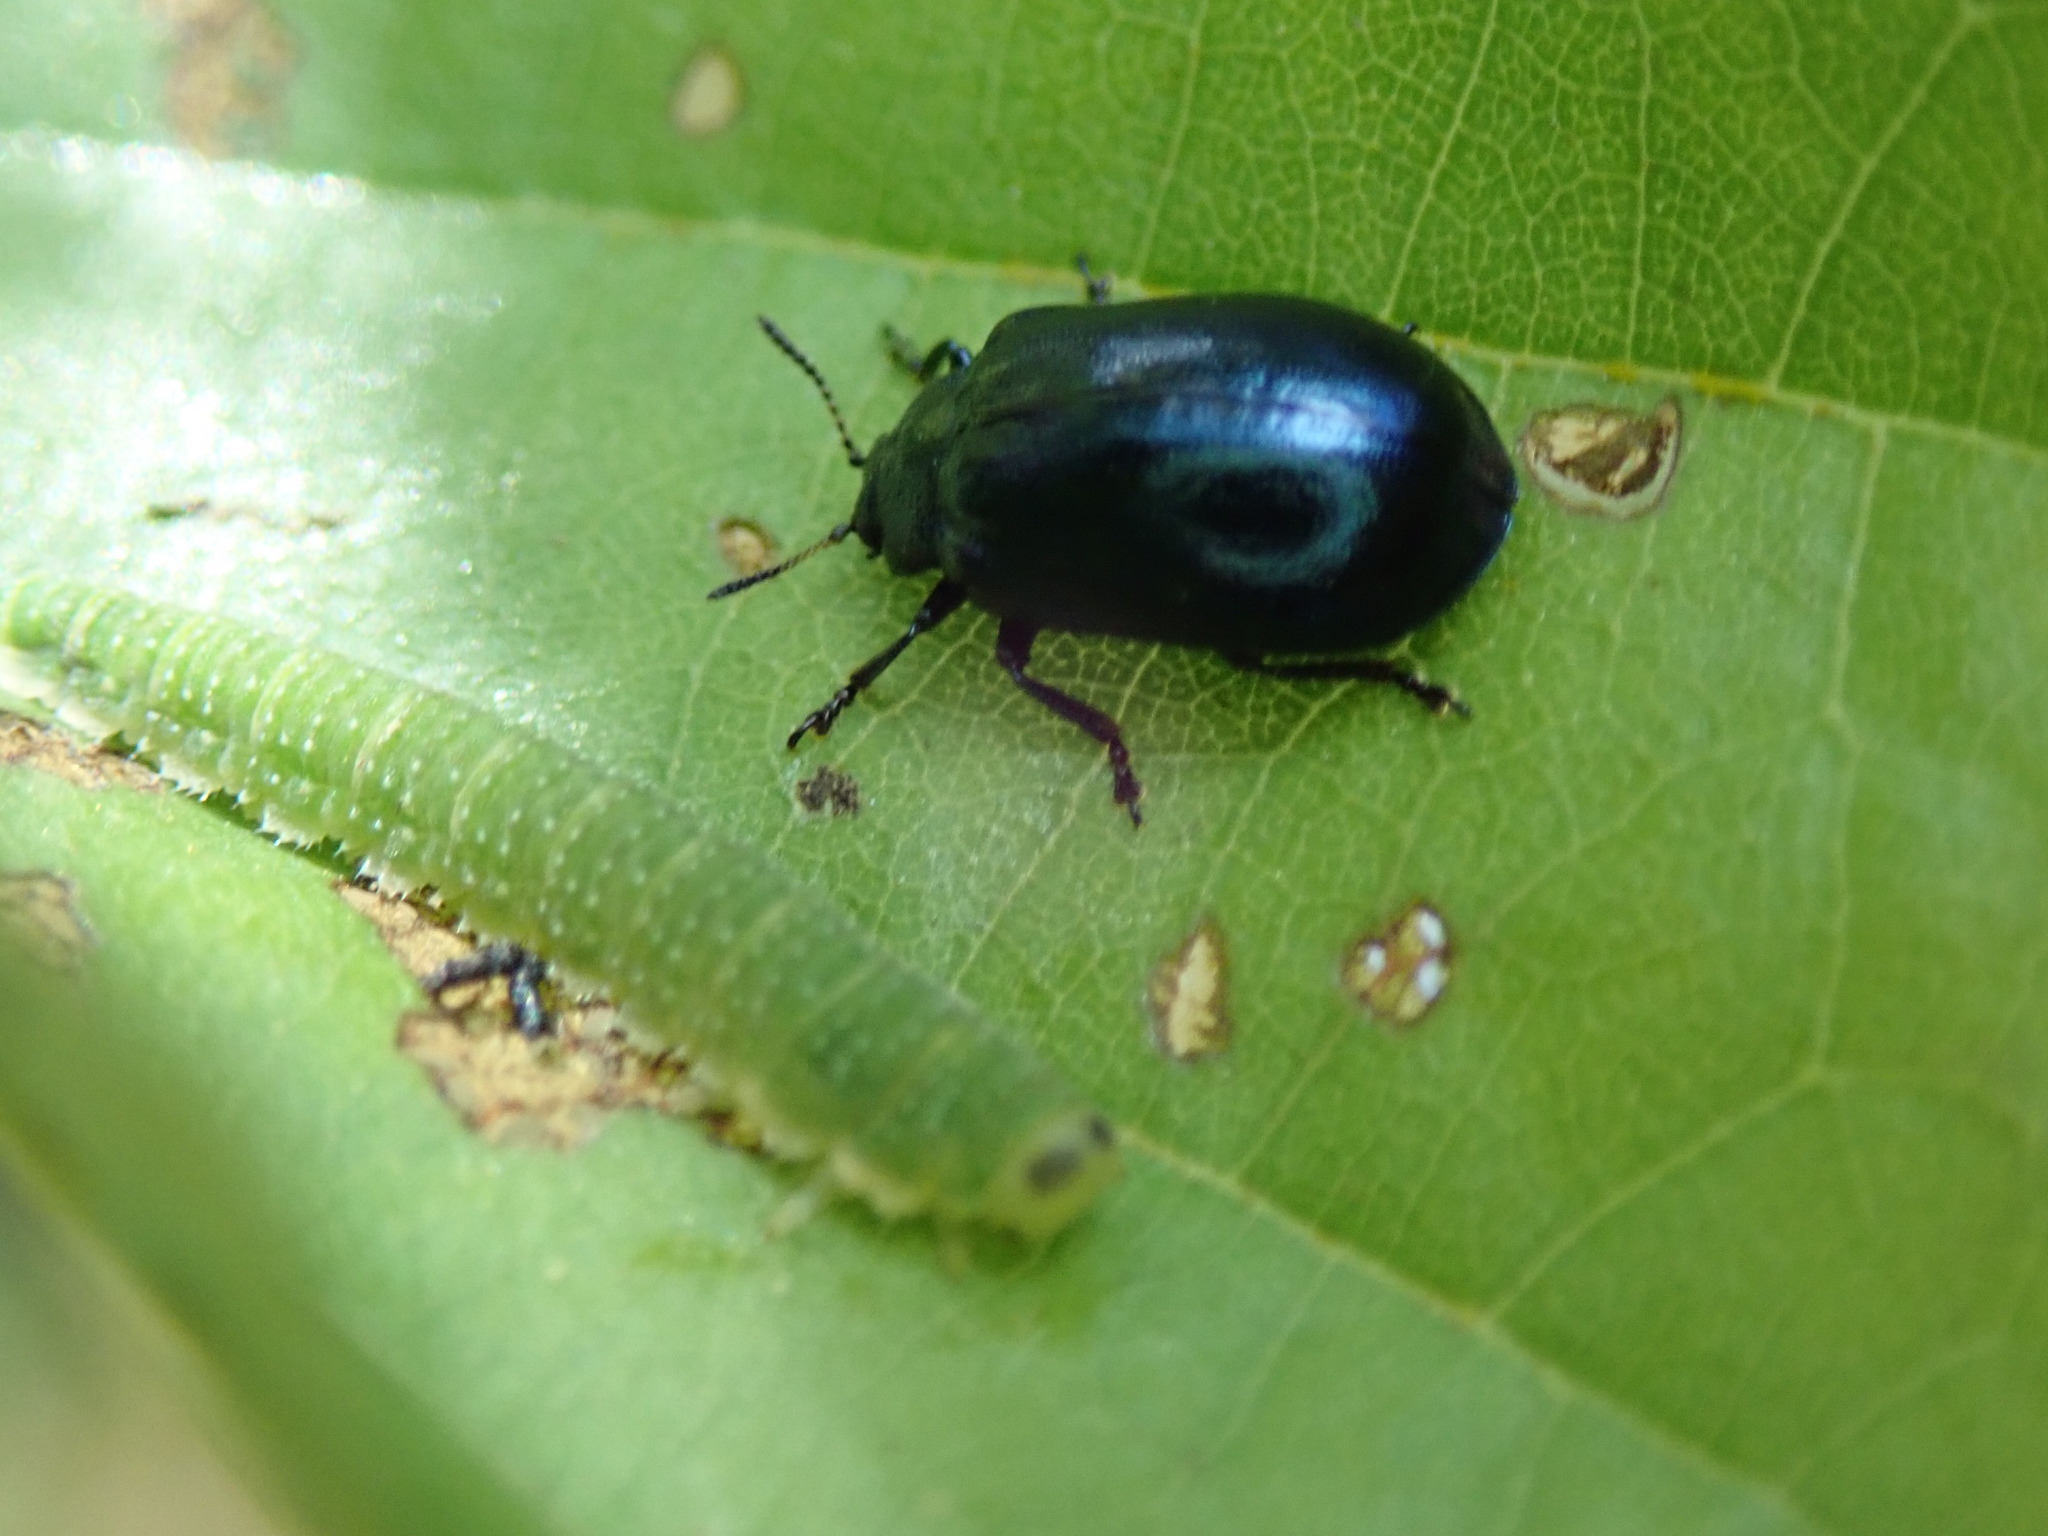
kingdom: Animalia
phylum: Arthropoda
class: Insecta
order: Coleoptera
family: Chrysomelidae
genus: Plagiosterna
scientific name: Plagiosterna aenea
